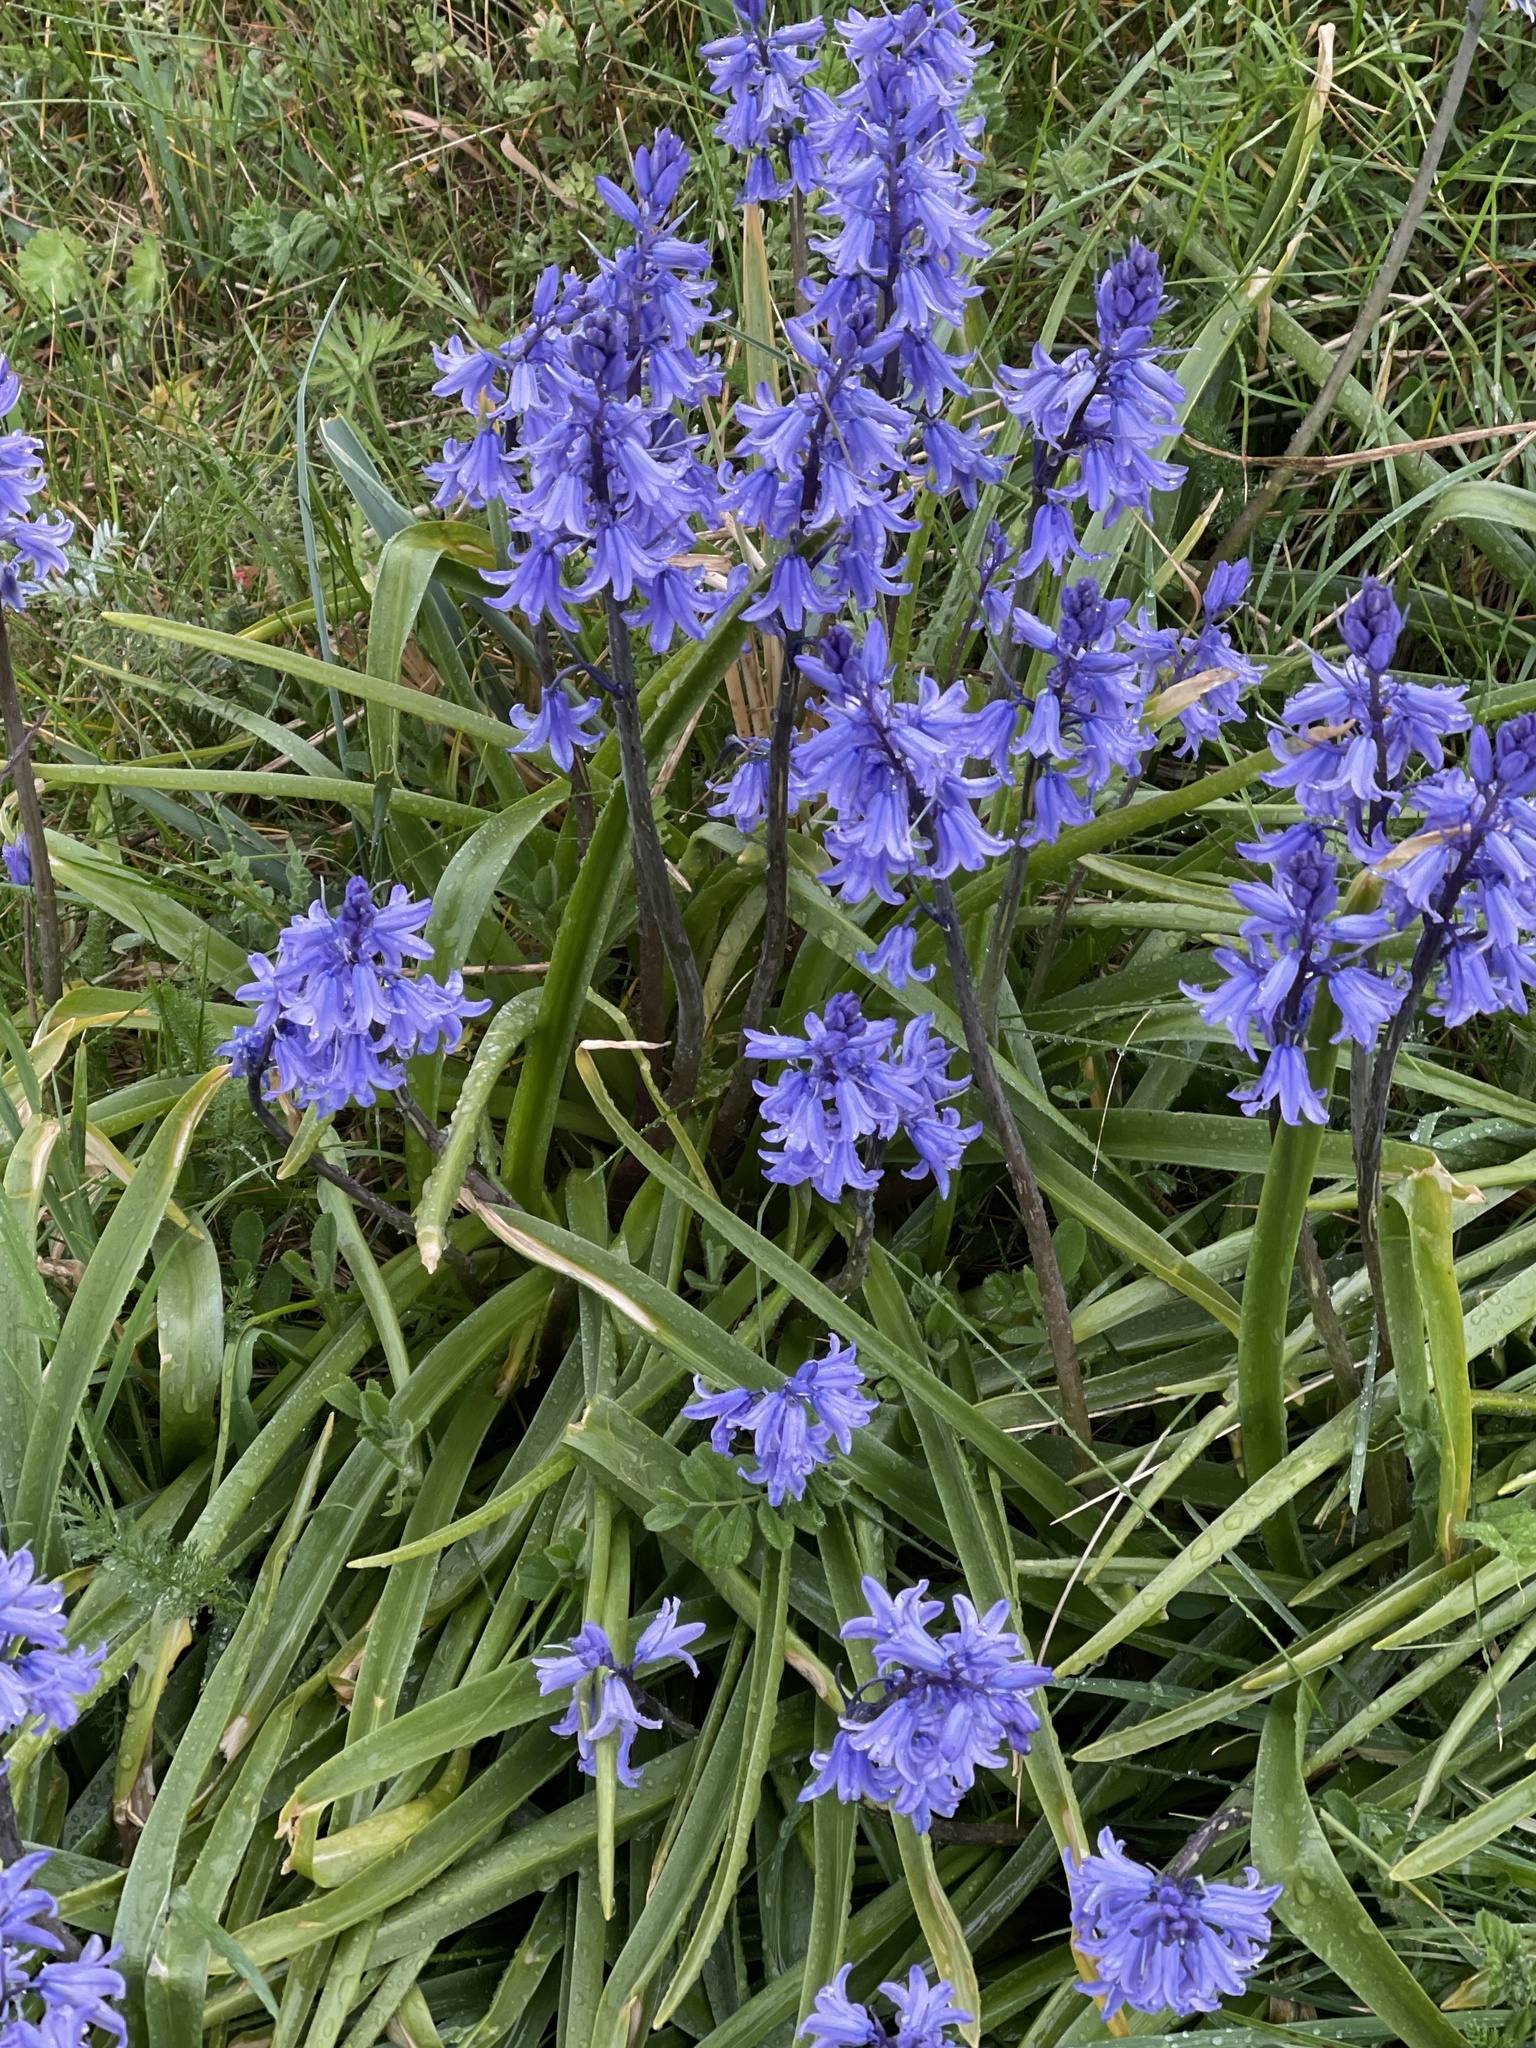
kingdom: Plantae
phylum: Tracheophyta
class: Liliopsida
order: Asparagales
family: Asparagaceae
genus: Hyacinthoides
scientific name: Hyacinthoides massartiana
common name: Hyacinthoides
